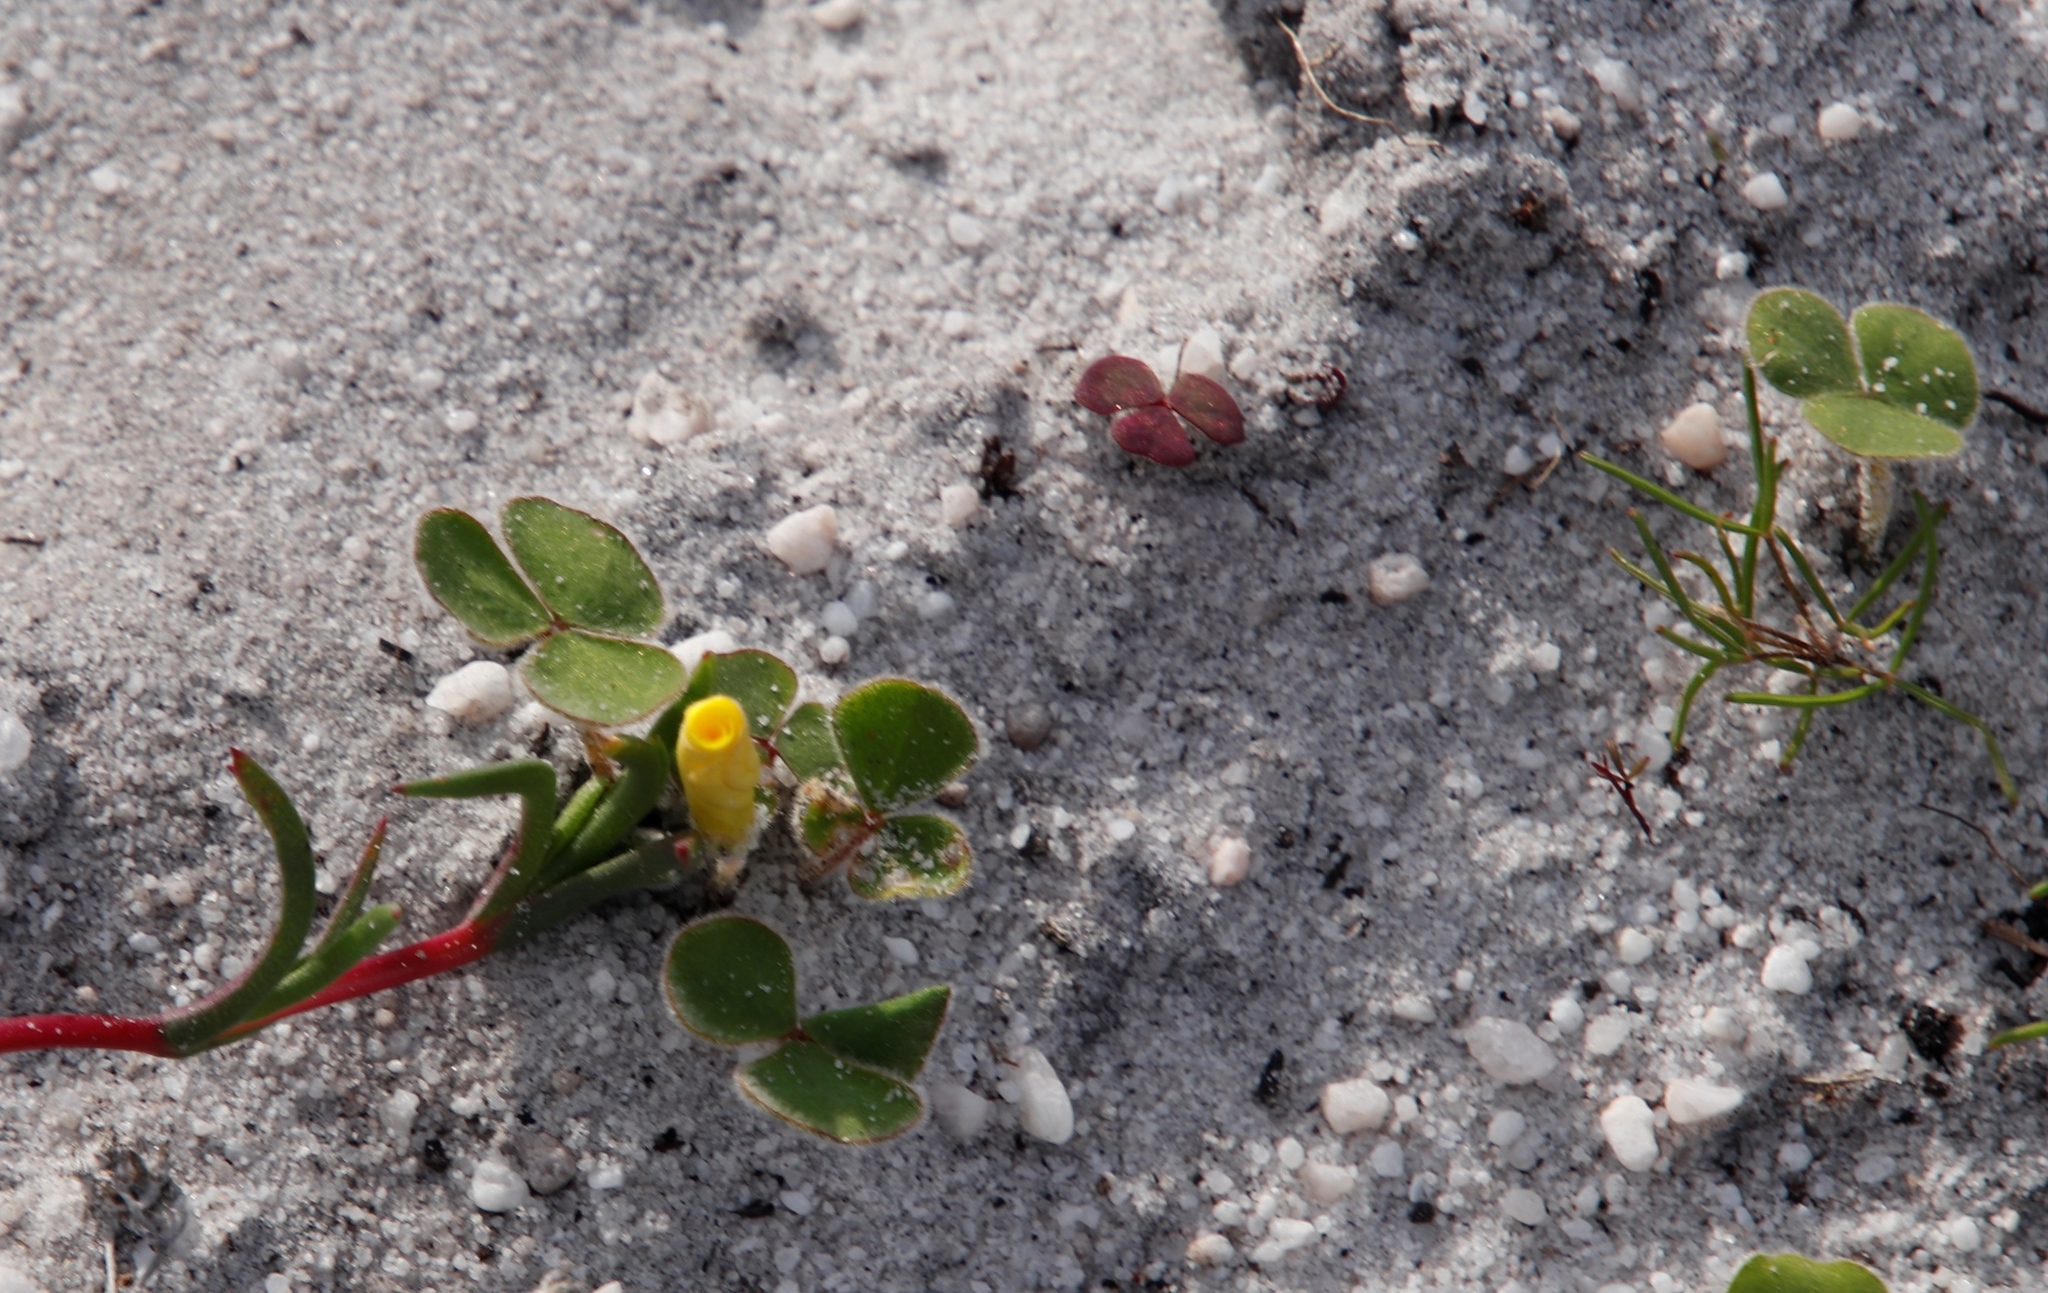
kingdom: Plantae
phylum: Tracheophyta
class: Magnoliopsida
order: Oxalidales
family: Oxalidaceae
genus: Oxalis
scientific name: Oxalis luteola
